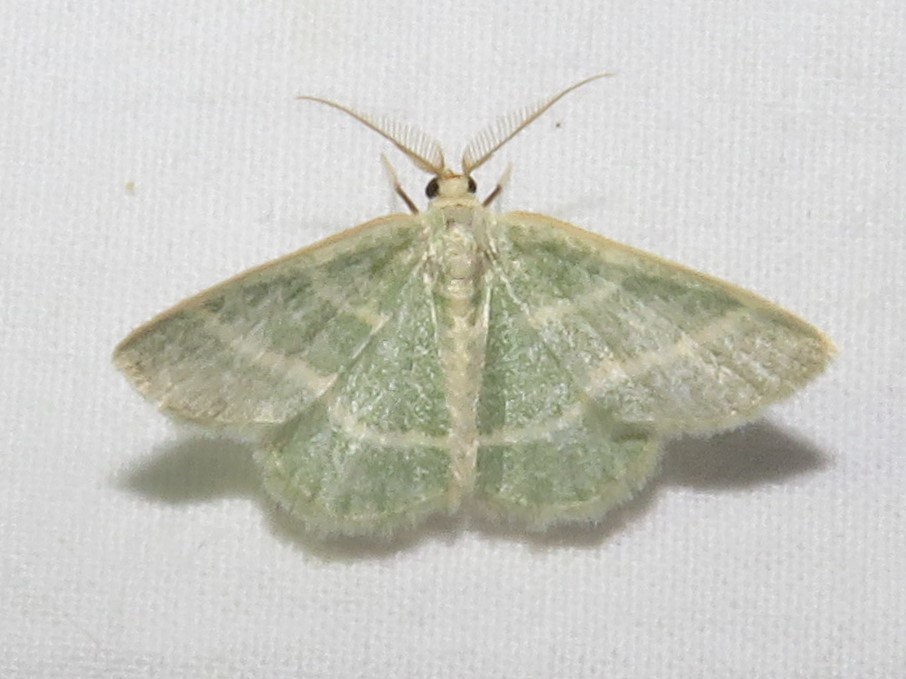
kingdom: Animalia
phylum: Arthropoda
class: Insecta
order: Lepidoptera
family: Geometridae
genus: Chlorochlamys
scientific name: Chlorochlamys chloroleucaria
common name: Blackberry looper
